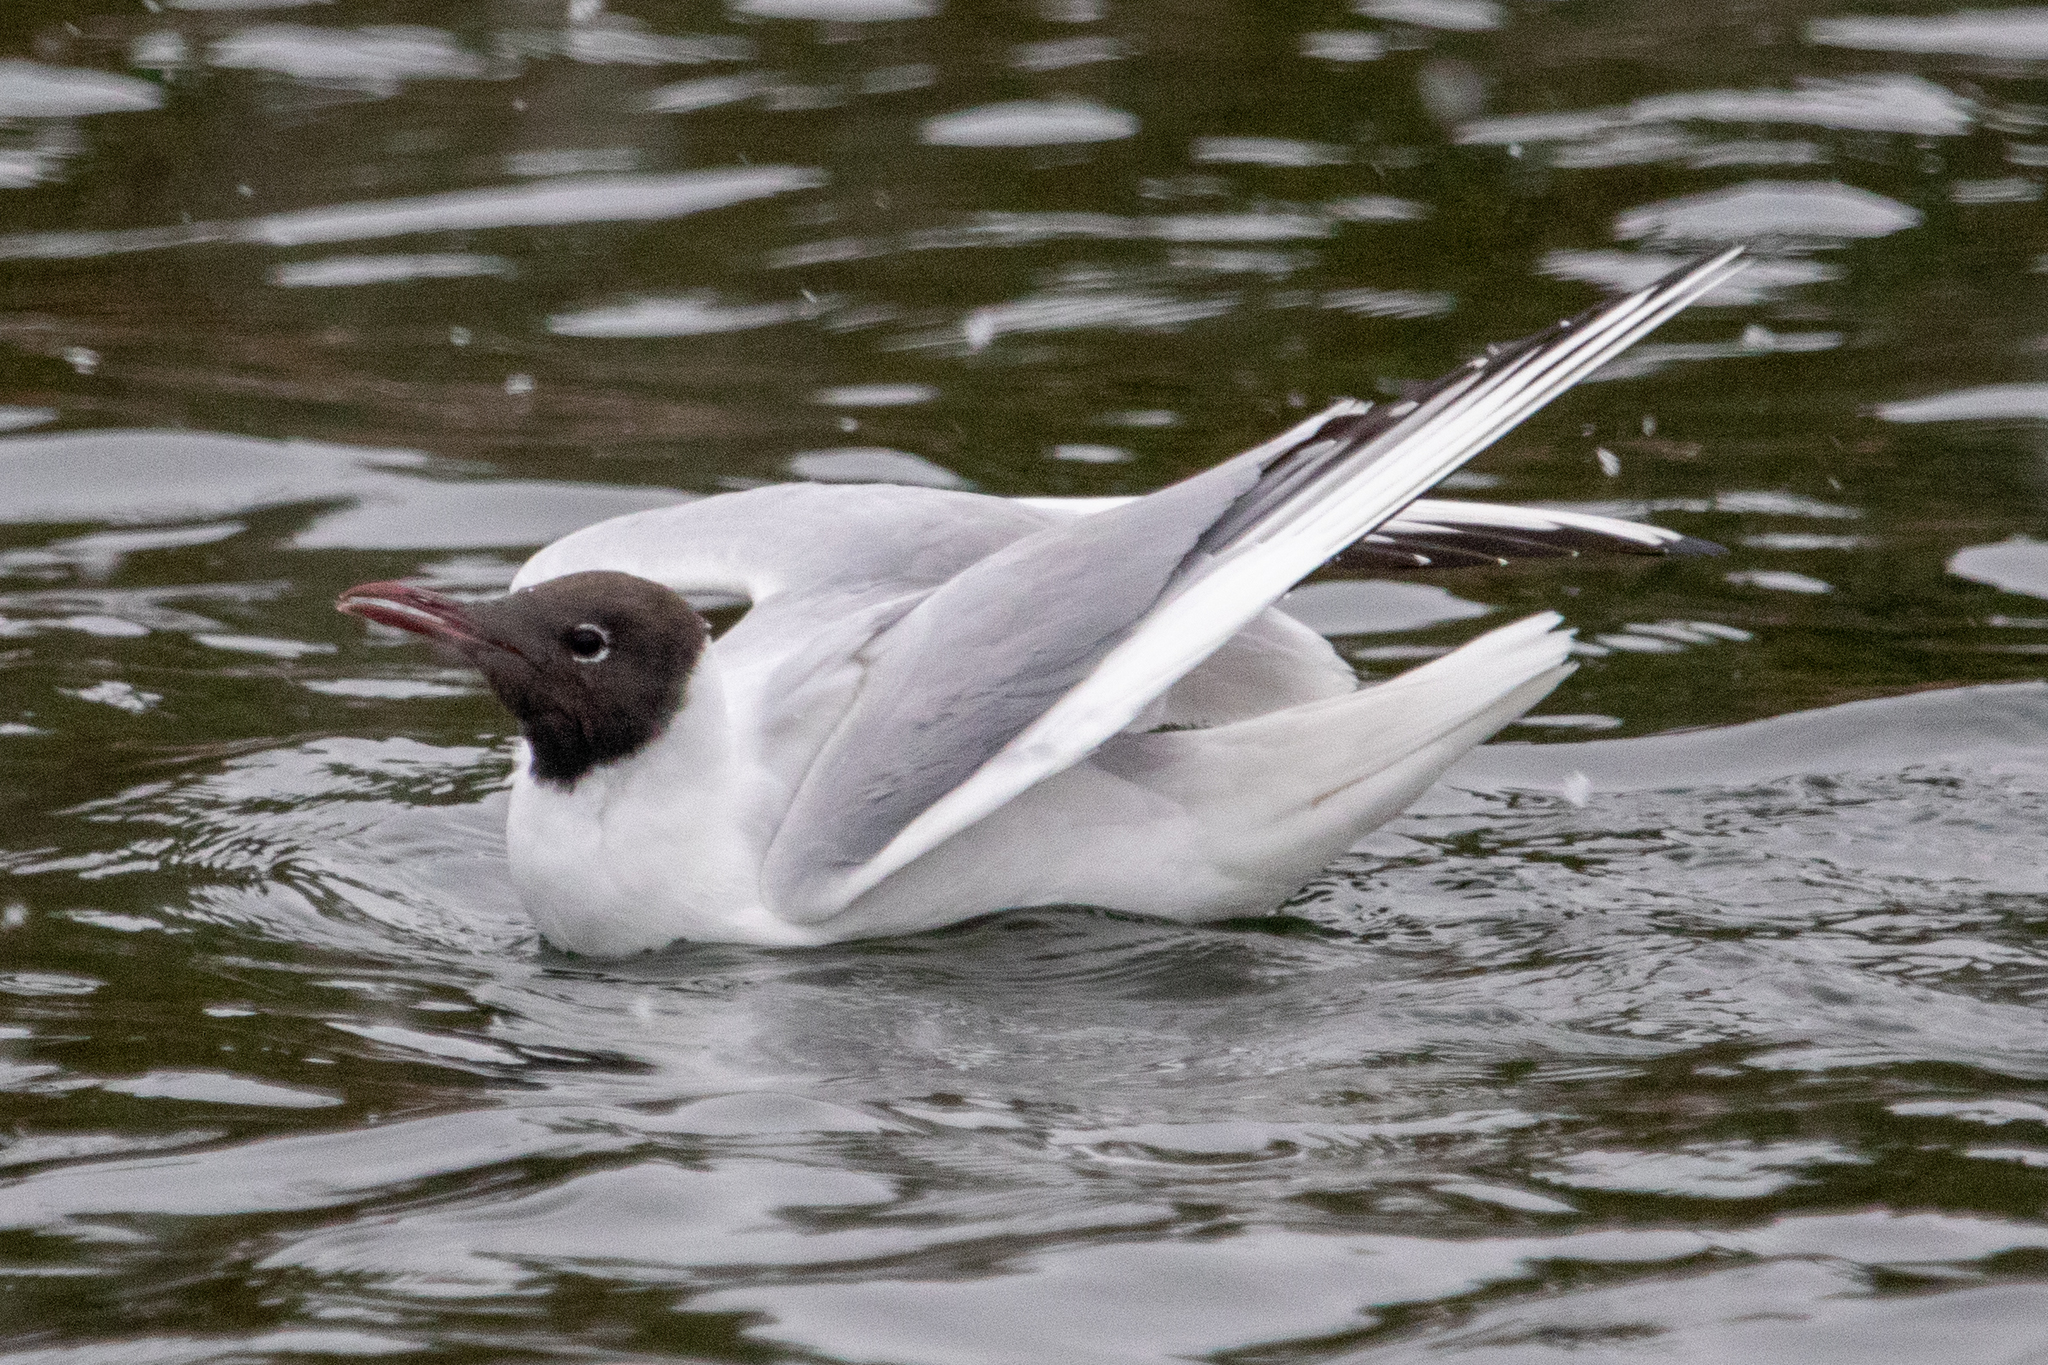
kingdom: Animalia
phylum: Chordata
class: Aves
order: Charadriiformes
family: Laridae
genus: Chroicocephalus
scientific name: Chroicocephalus ridibundus
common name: Black-headed gull
